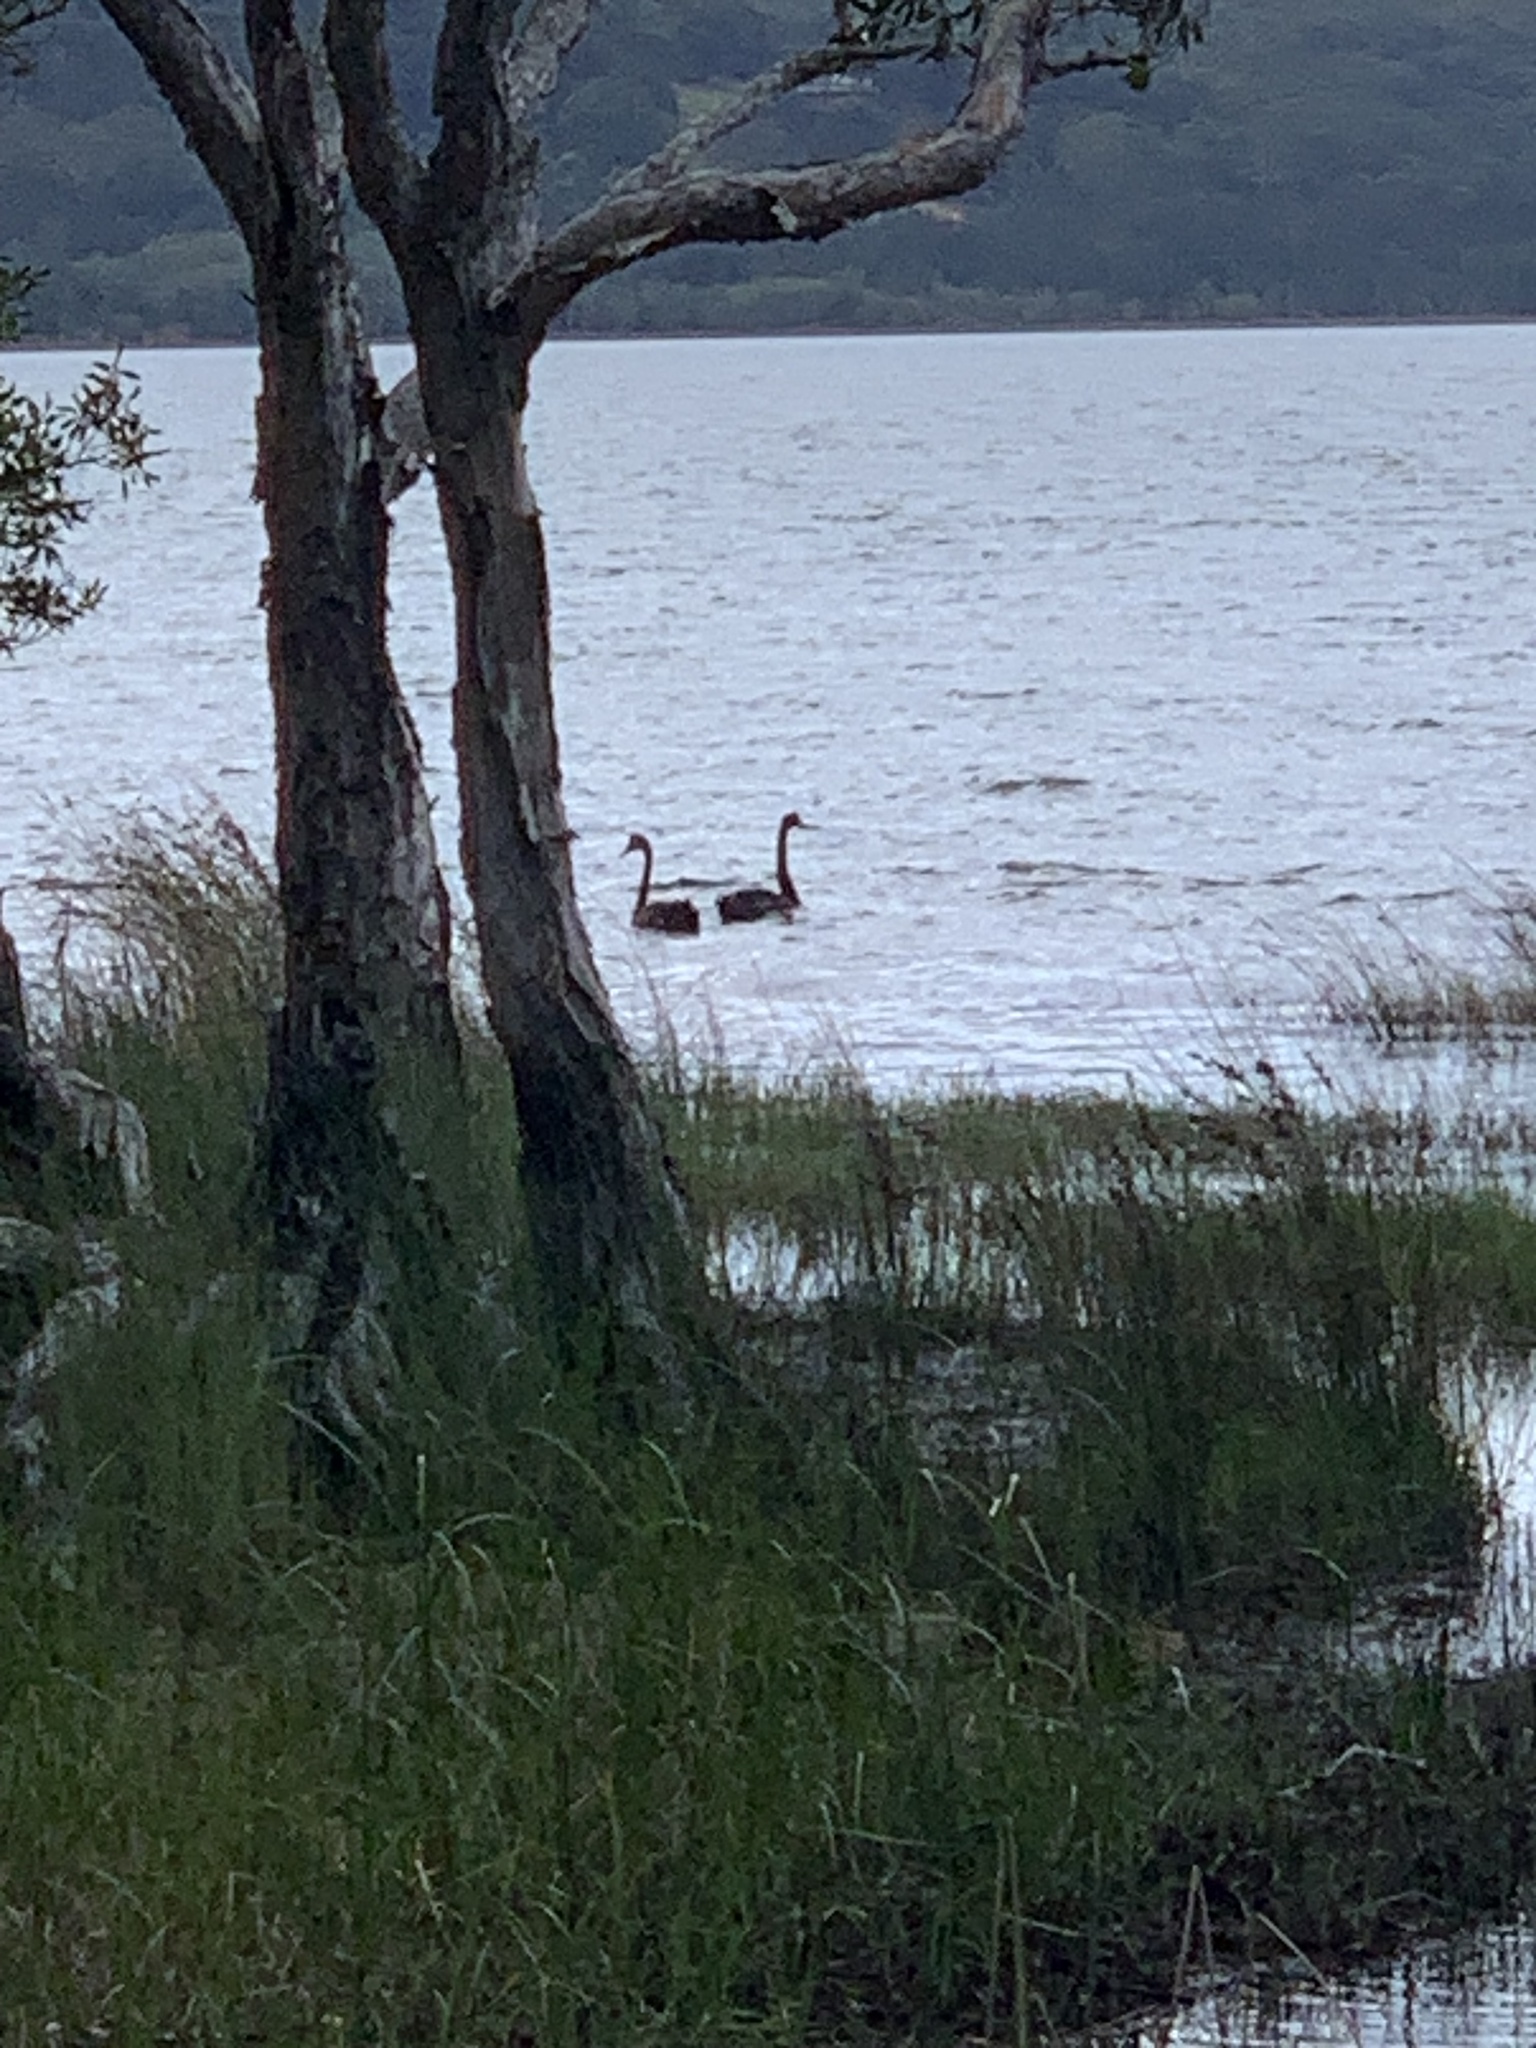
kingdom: Animalia
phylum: Chordata
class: Aves
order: Anseriformes
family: Anatidae
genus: Cygnus
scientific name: Cygnus atratus
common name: Black swan
